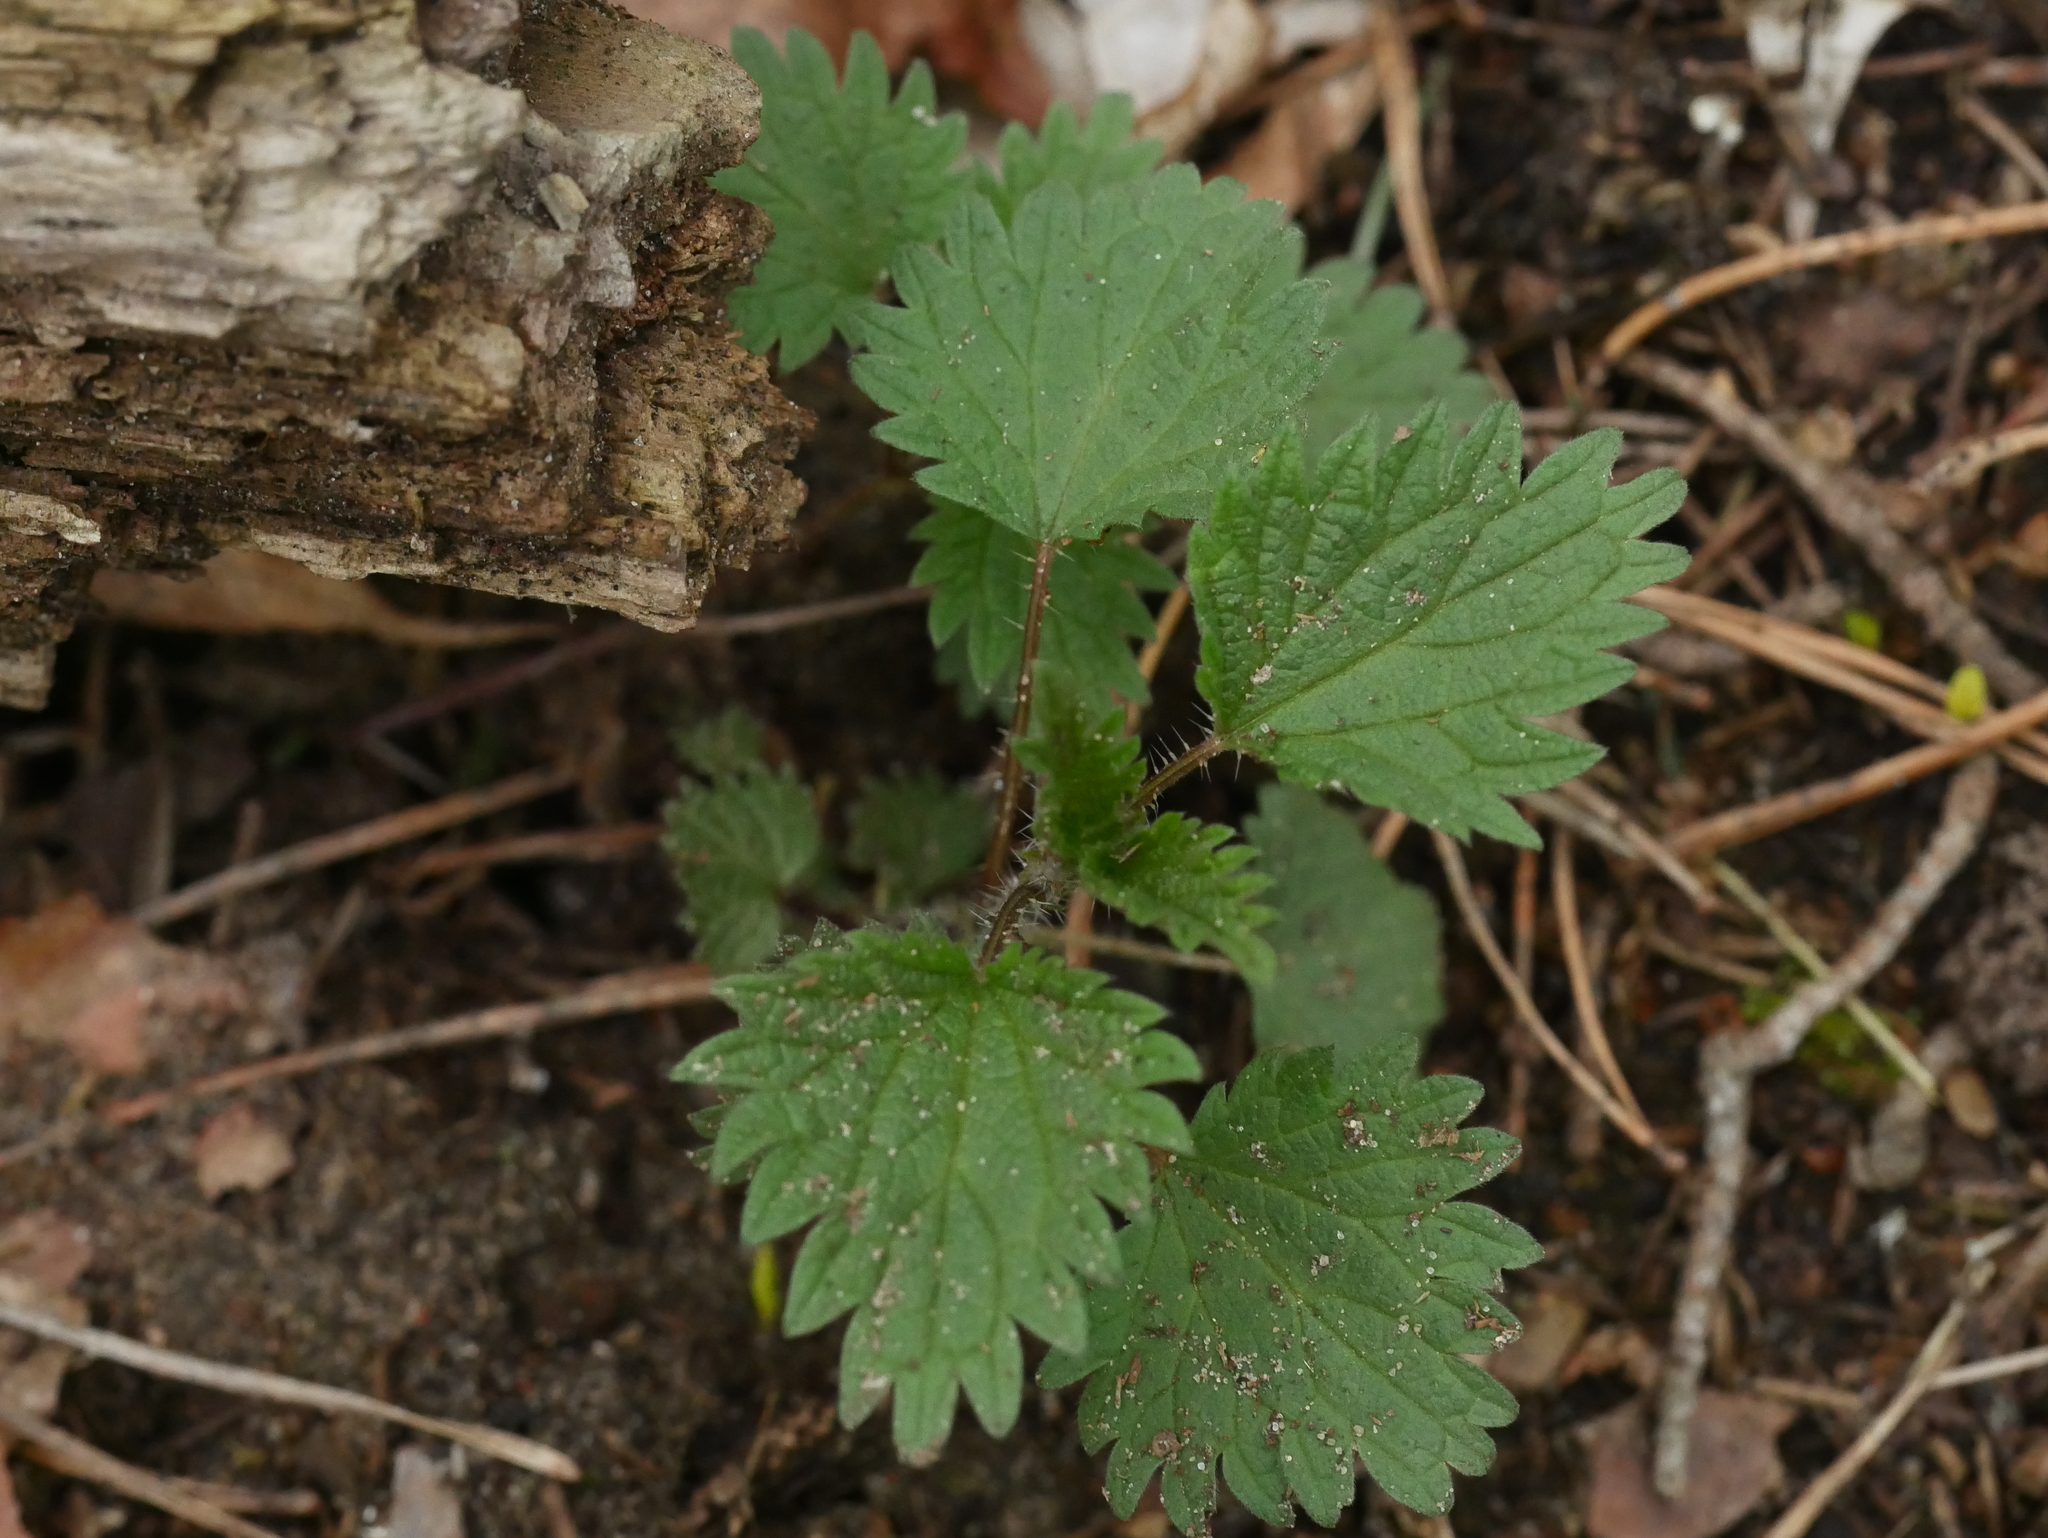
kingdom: Plantae
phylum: Tracheophyta
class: Magnoliopsida
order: Rosales
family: Urticaceae
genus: Urtica
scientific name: Urtica dioica
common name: Common nettle
